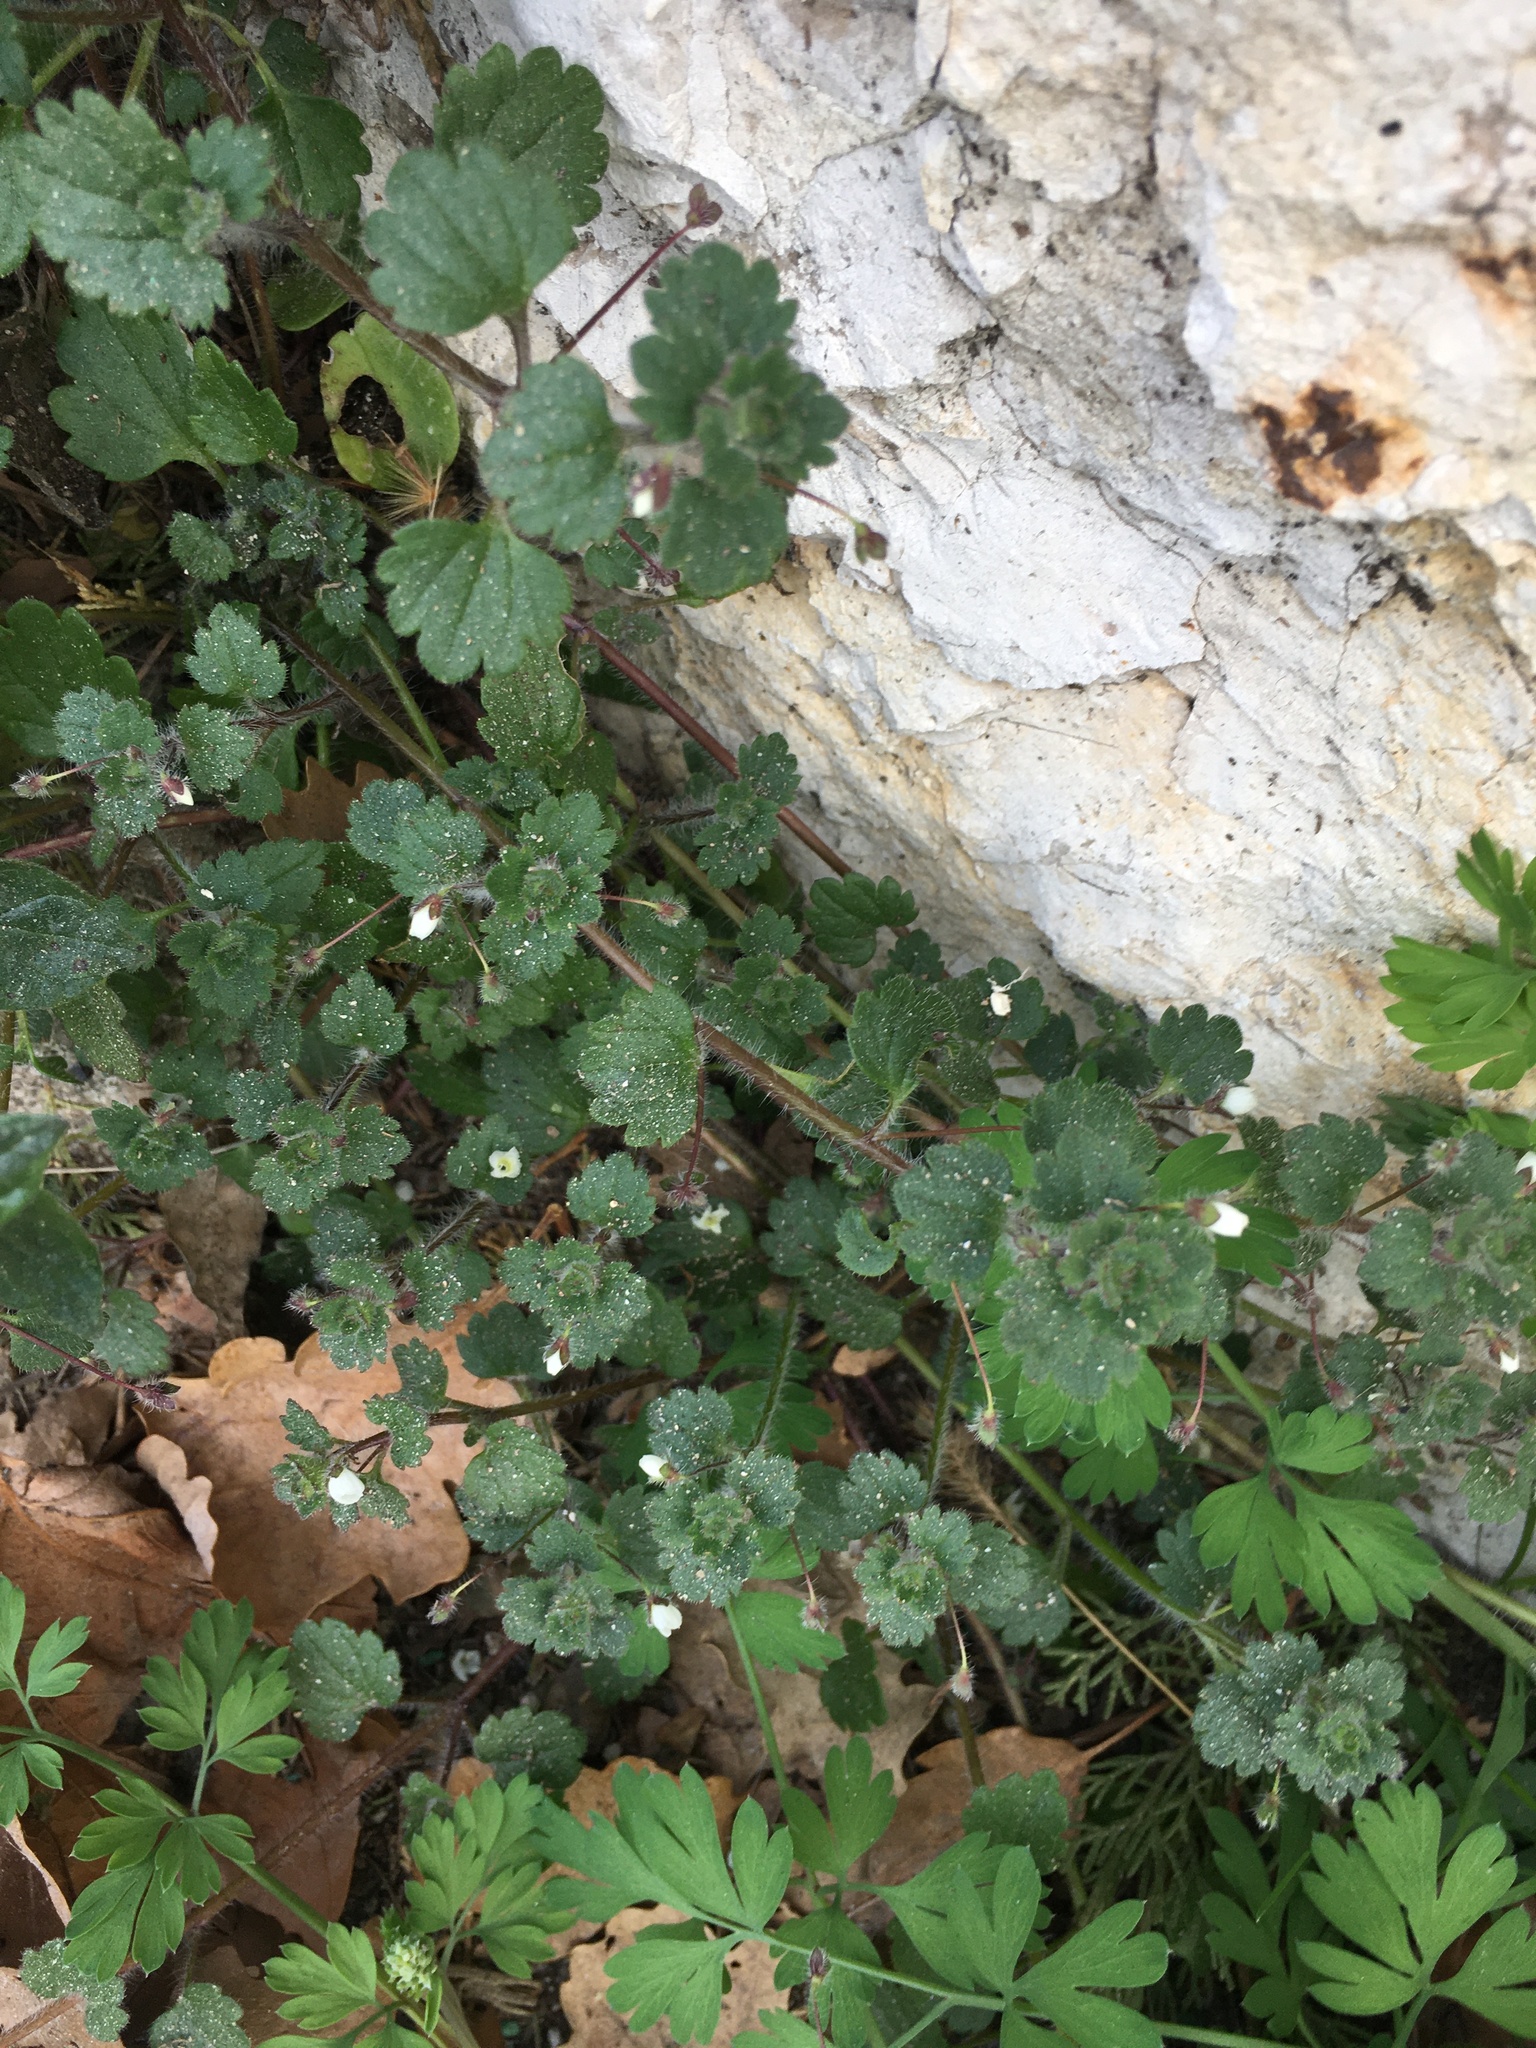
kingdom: Plantae
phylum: Tracheophyta
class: Magnoliopsida
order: Lamiales
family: Plantaginaceae
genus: Veronica
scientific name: Veronica cymbalaria
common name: Pale speedwell
